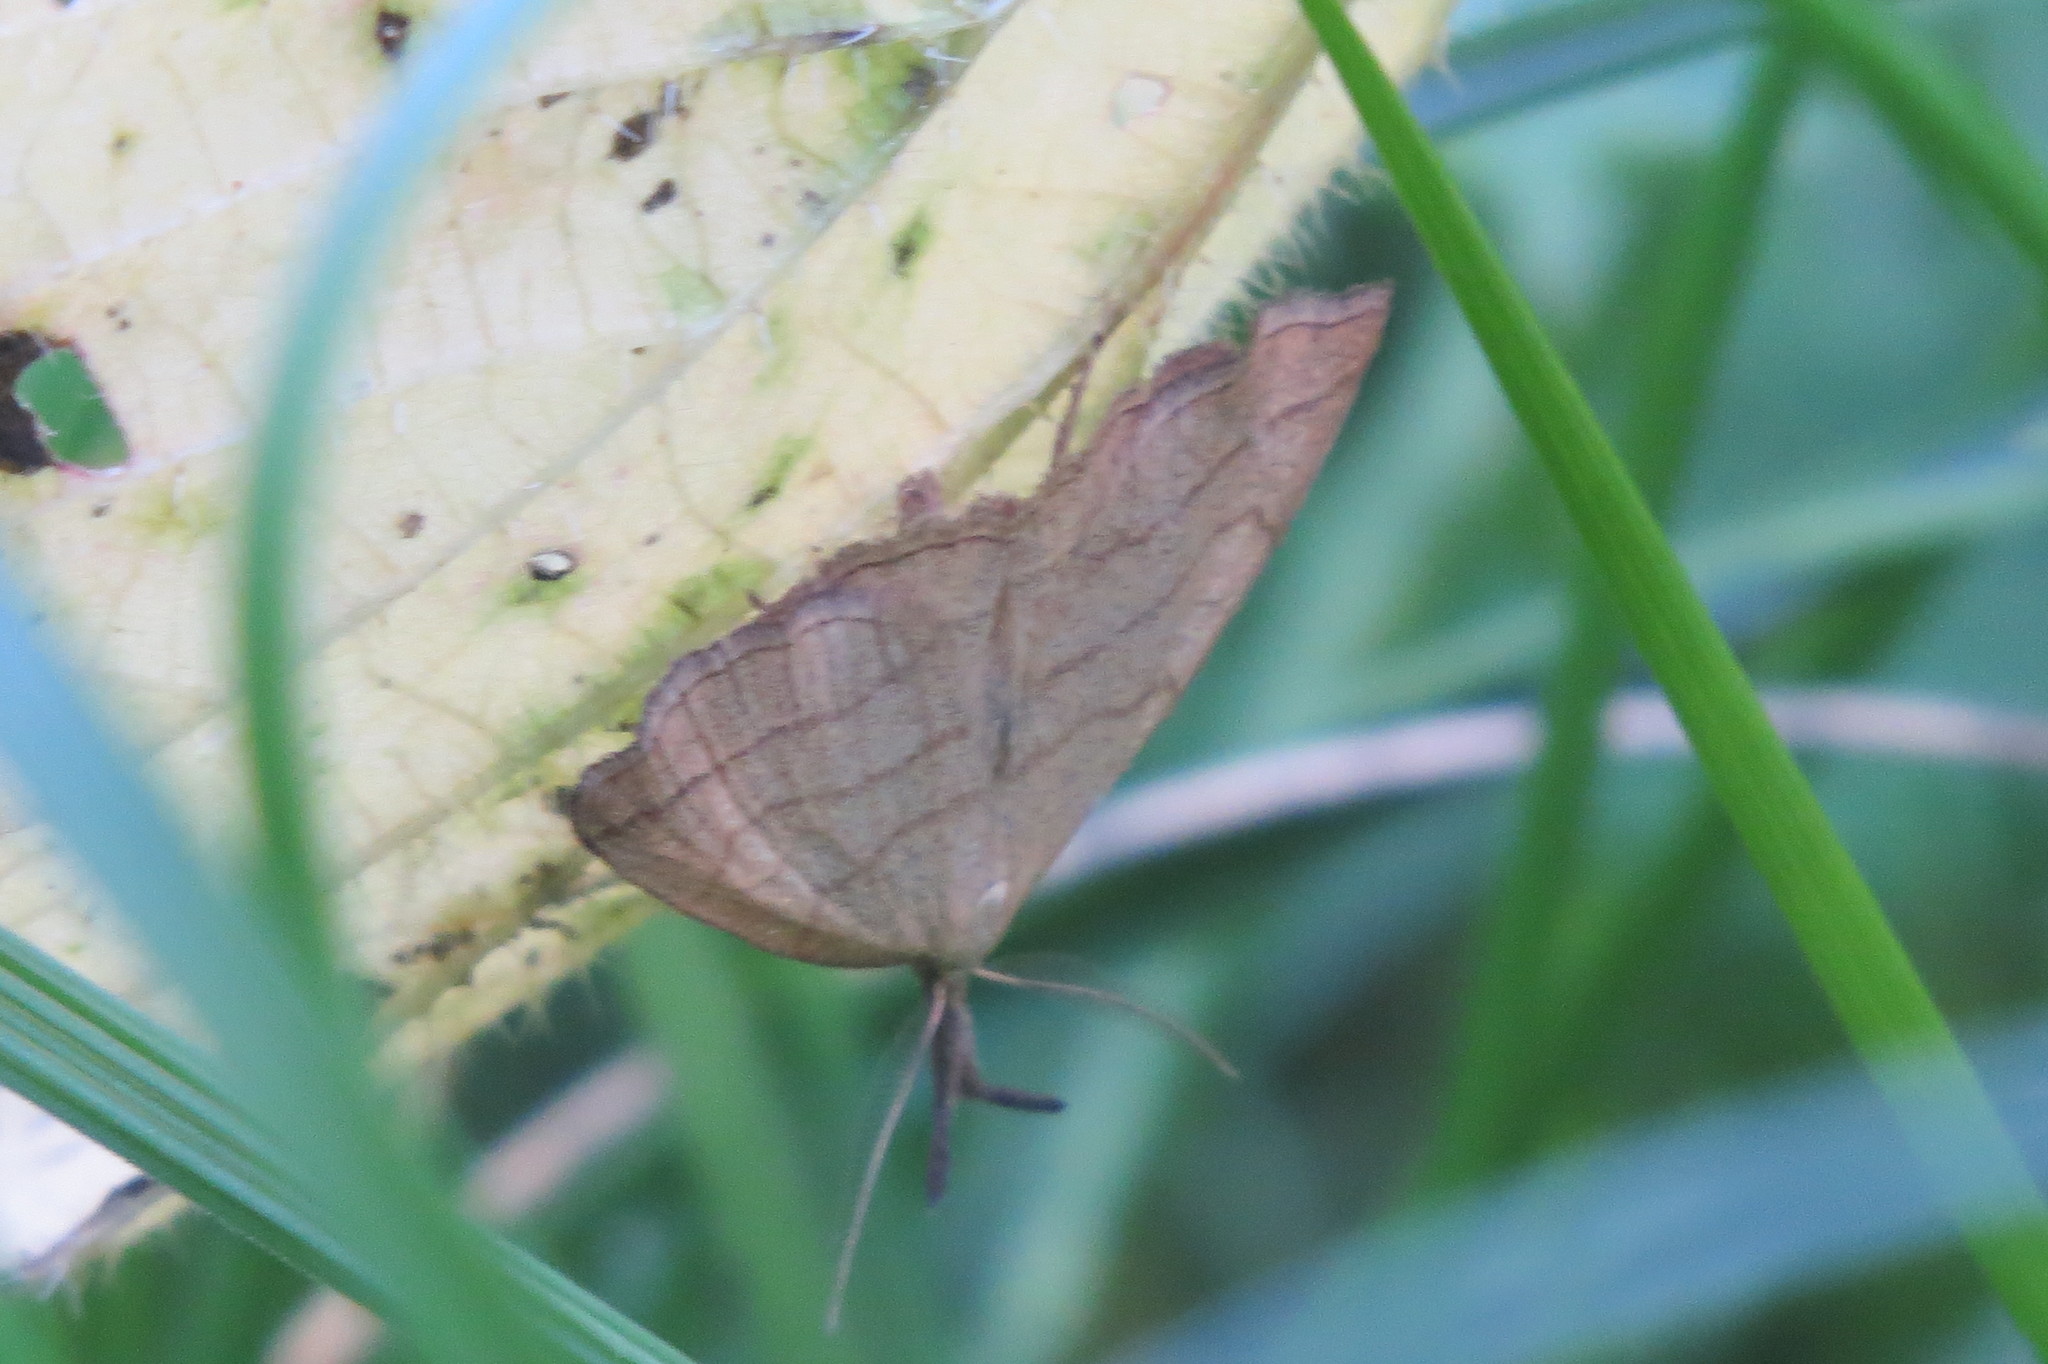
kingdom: Animalia
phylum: Arthropoda
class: Insecta
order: Lepidoptera
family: Erebidae
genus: Polypogon
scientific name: Polypogon tentacularia
